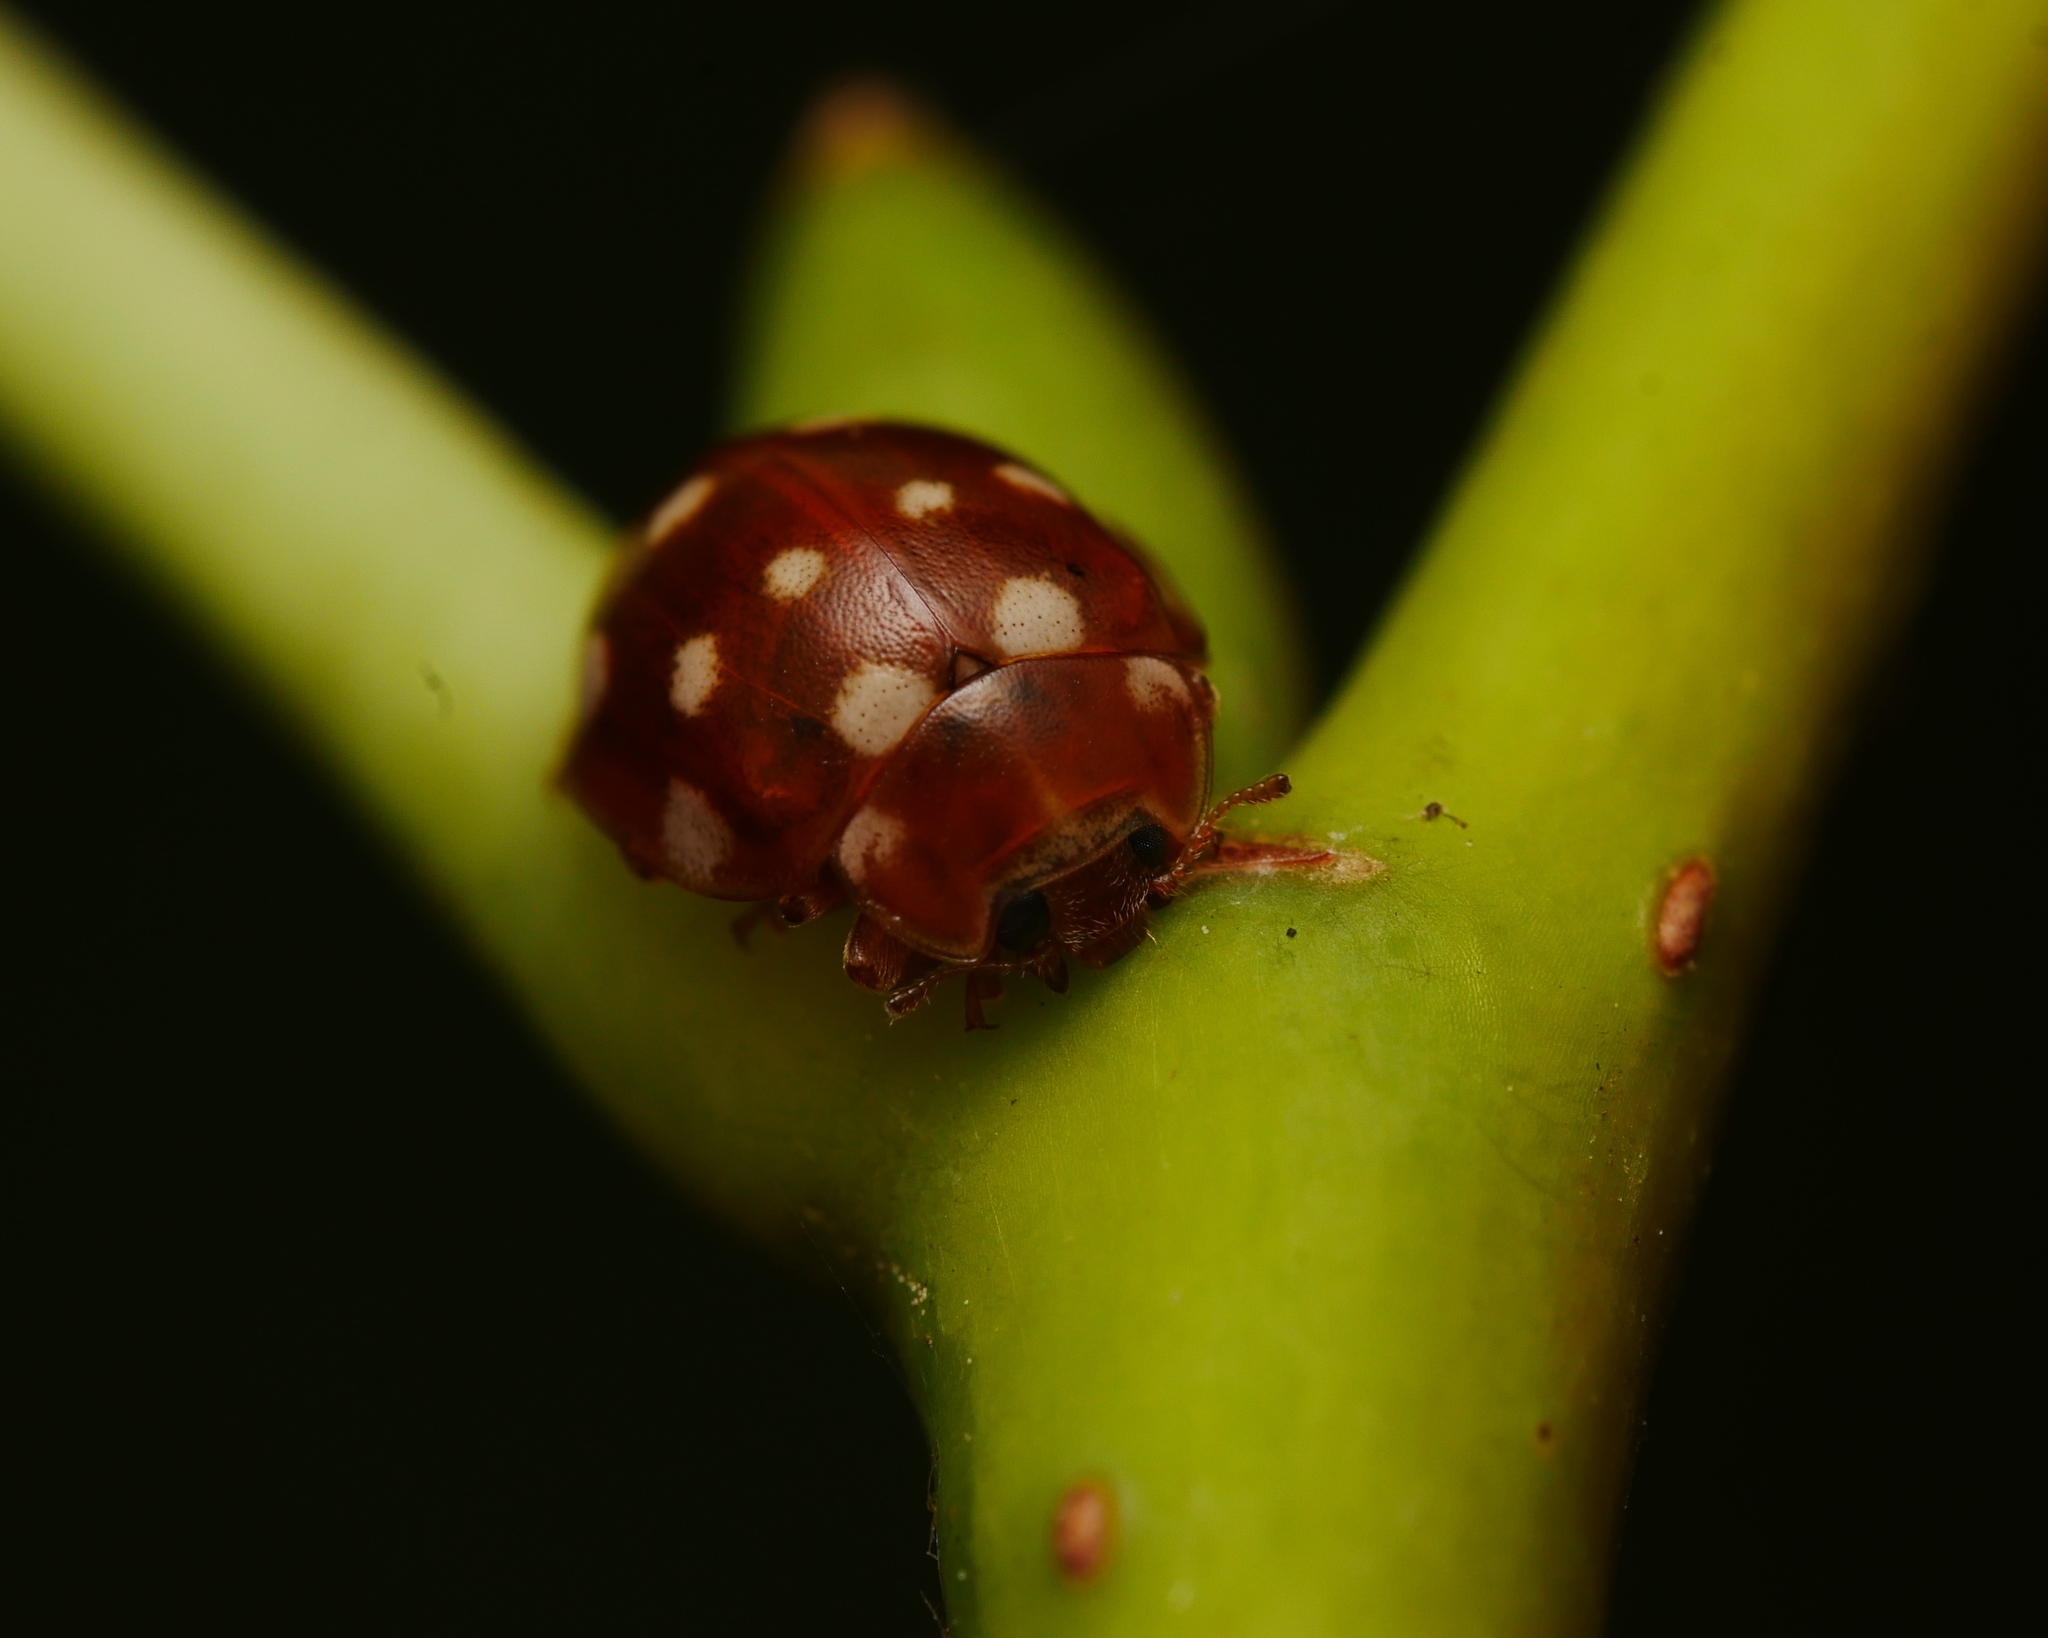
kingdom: Animalia
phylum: Arthropoda
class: Insecta
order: Coleoptera
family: Coccinellidae
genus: Calvia
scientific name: Calvia quatuordecimguttata
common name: Cream-spot ladybird
